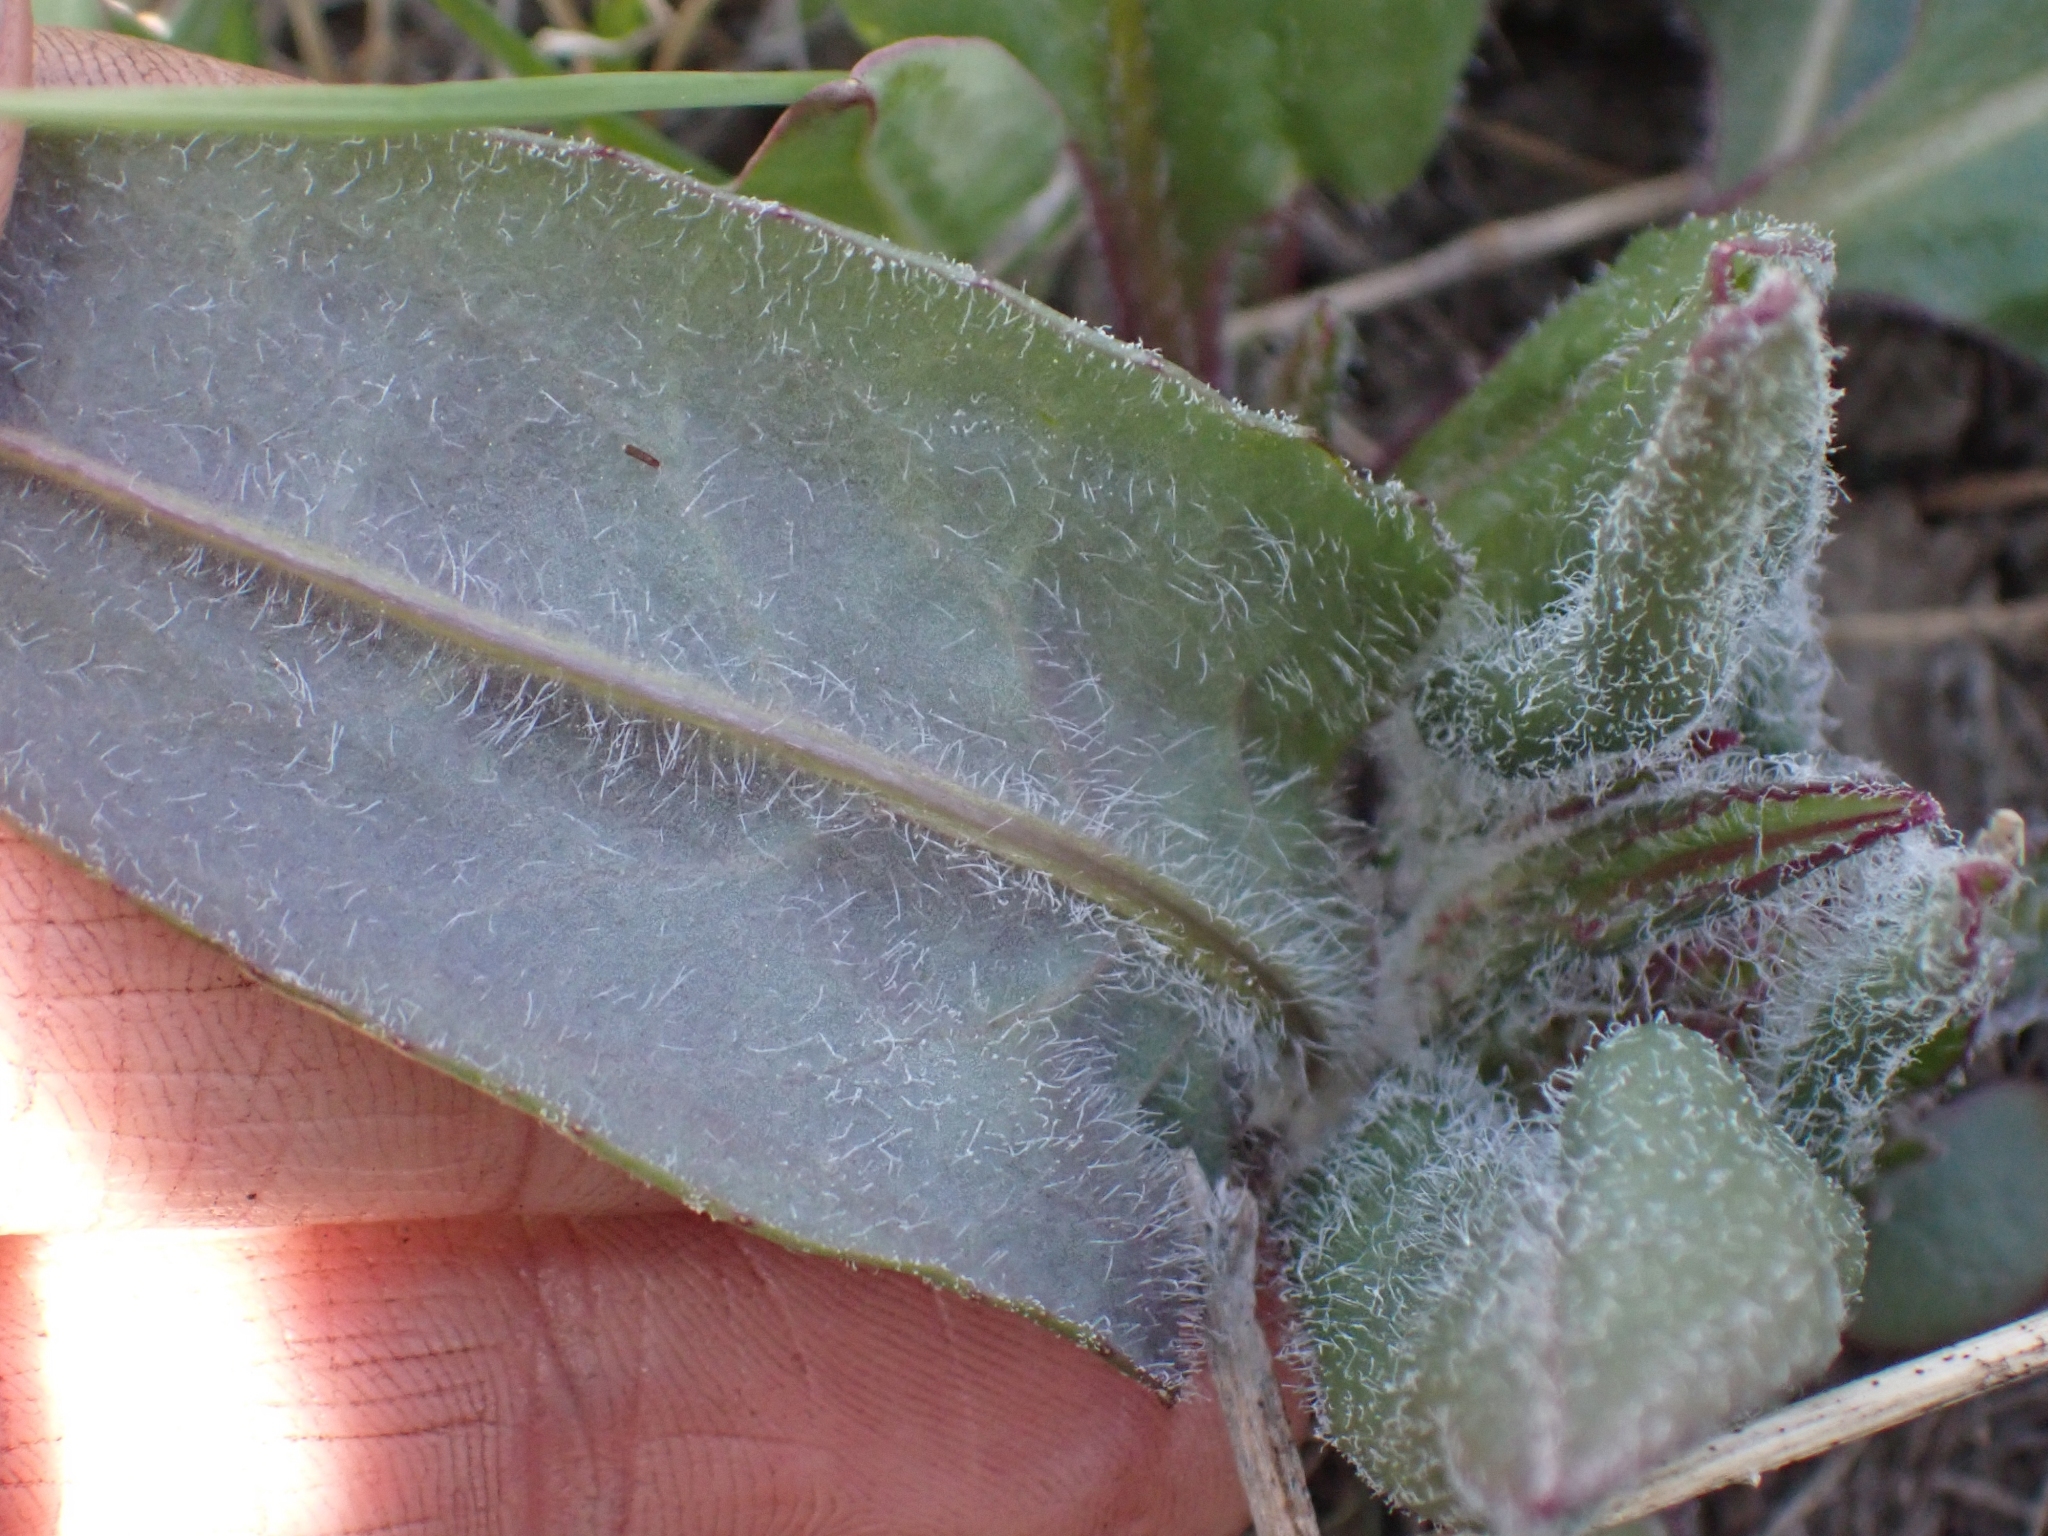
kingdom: Plantae
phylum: Tracheophyta
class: Magnoliopsida
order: Asterales
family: Asteraceae
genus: Senecio
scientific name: Senecio integerrimus
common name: Gaugeplant
